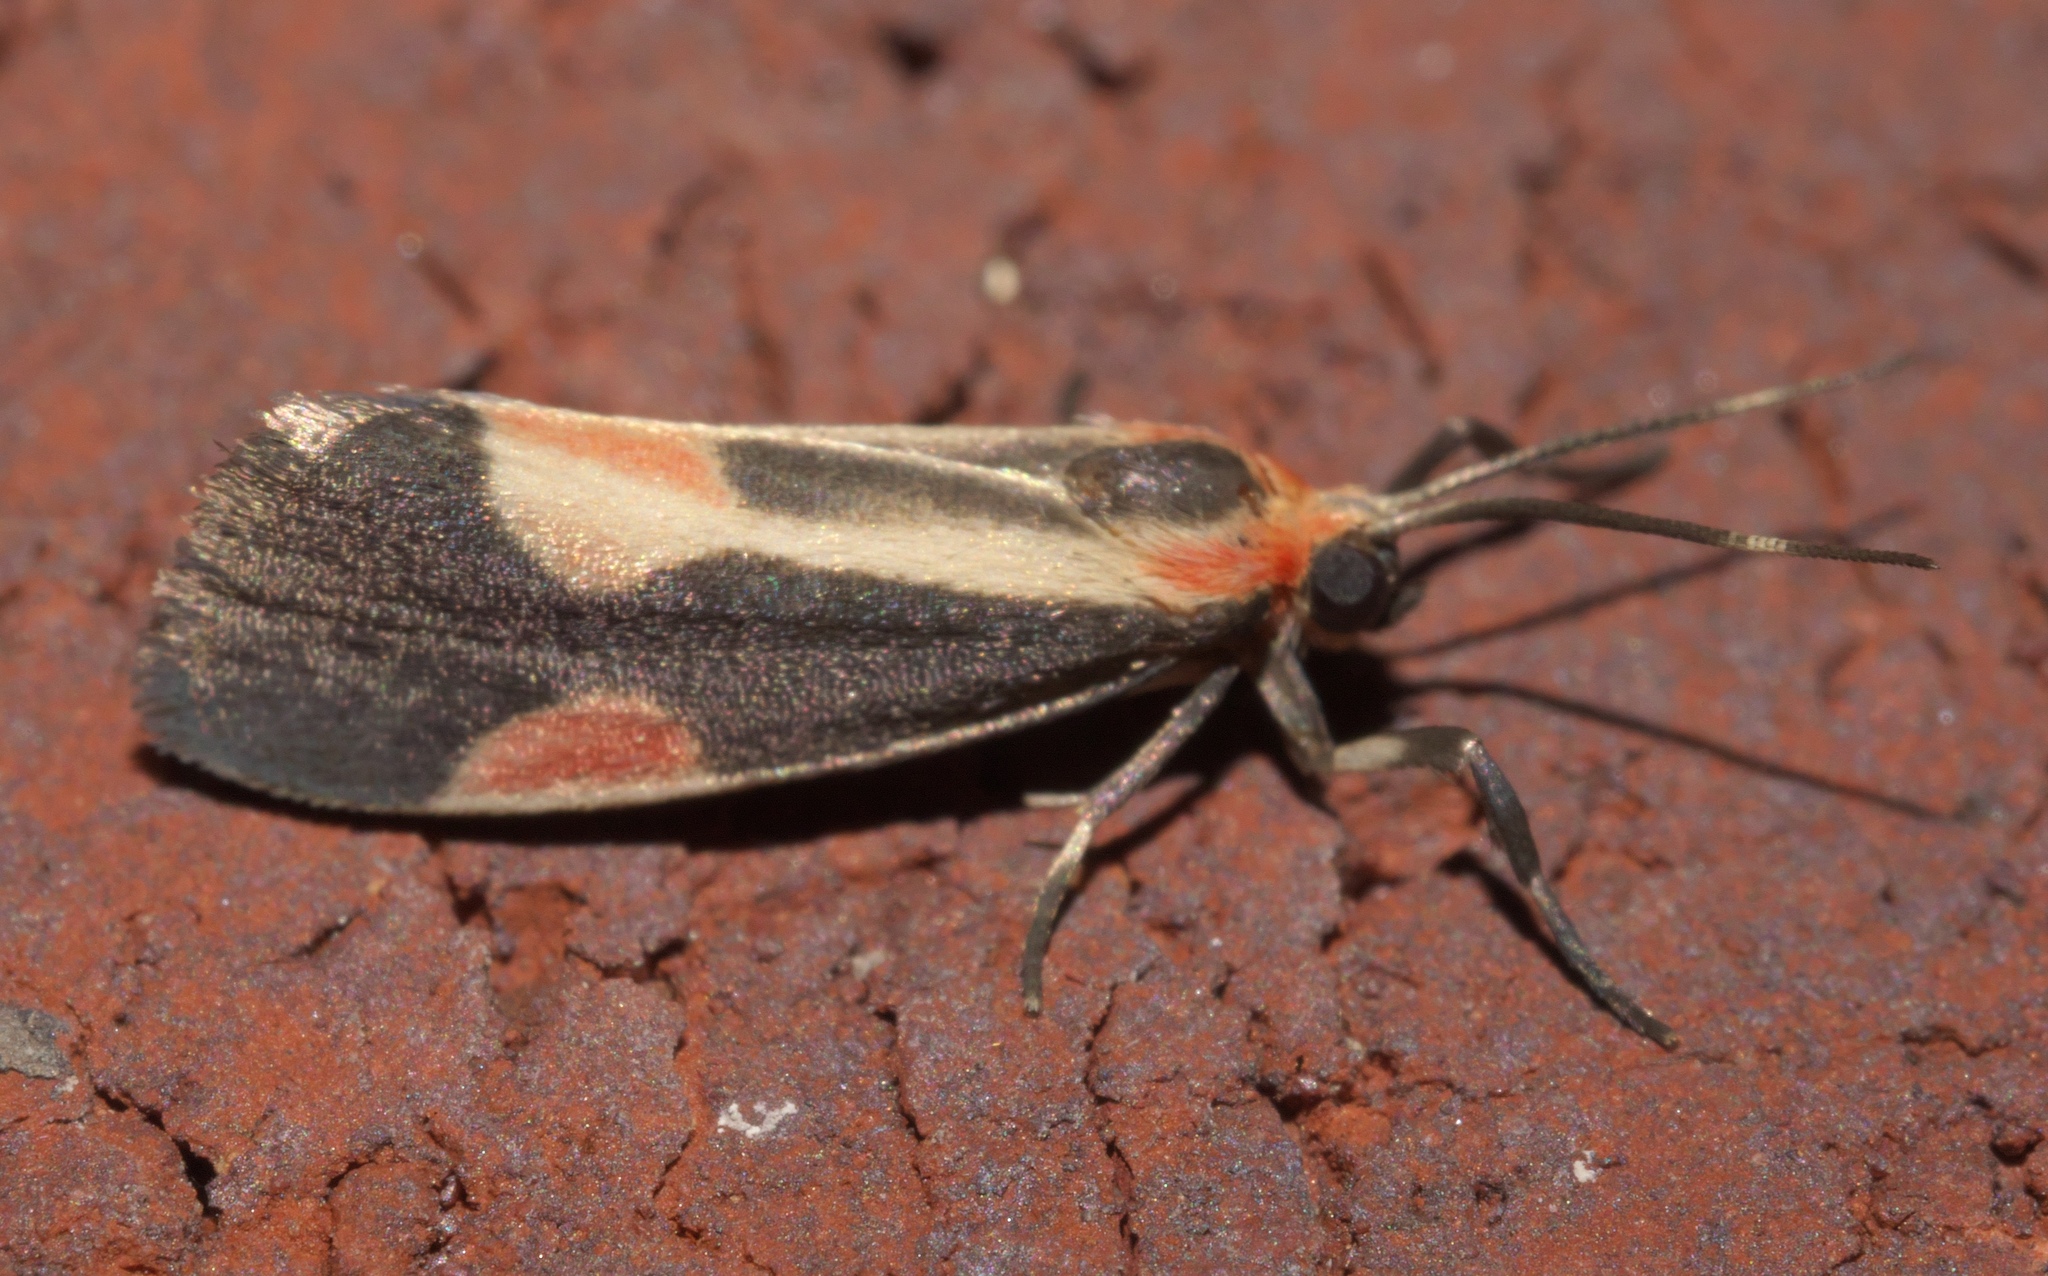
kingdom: Animalia
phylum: Arthropoda
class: Insecta
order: Lepidoptera
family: Erebidae
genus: Cisthene
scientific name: Cisthene packardii
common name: Packard's lichen moth
